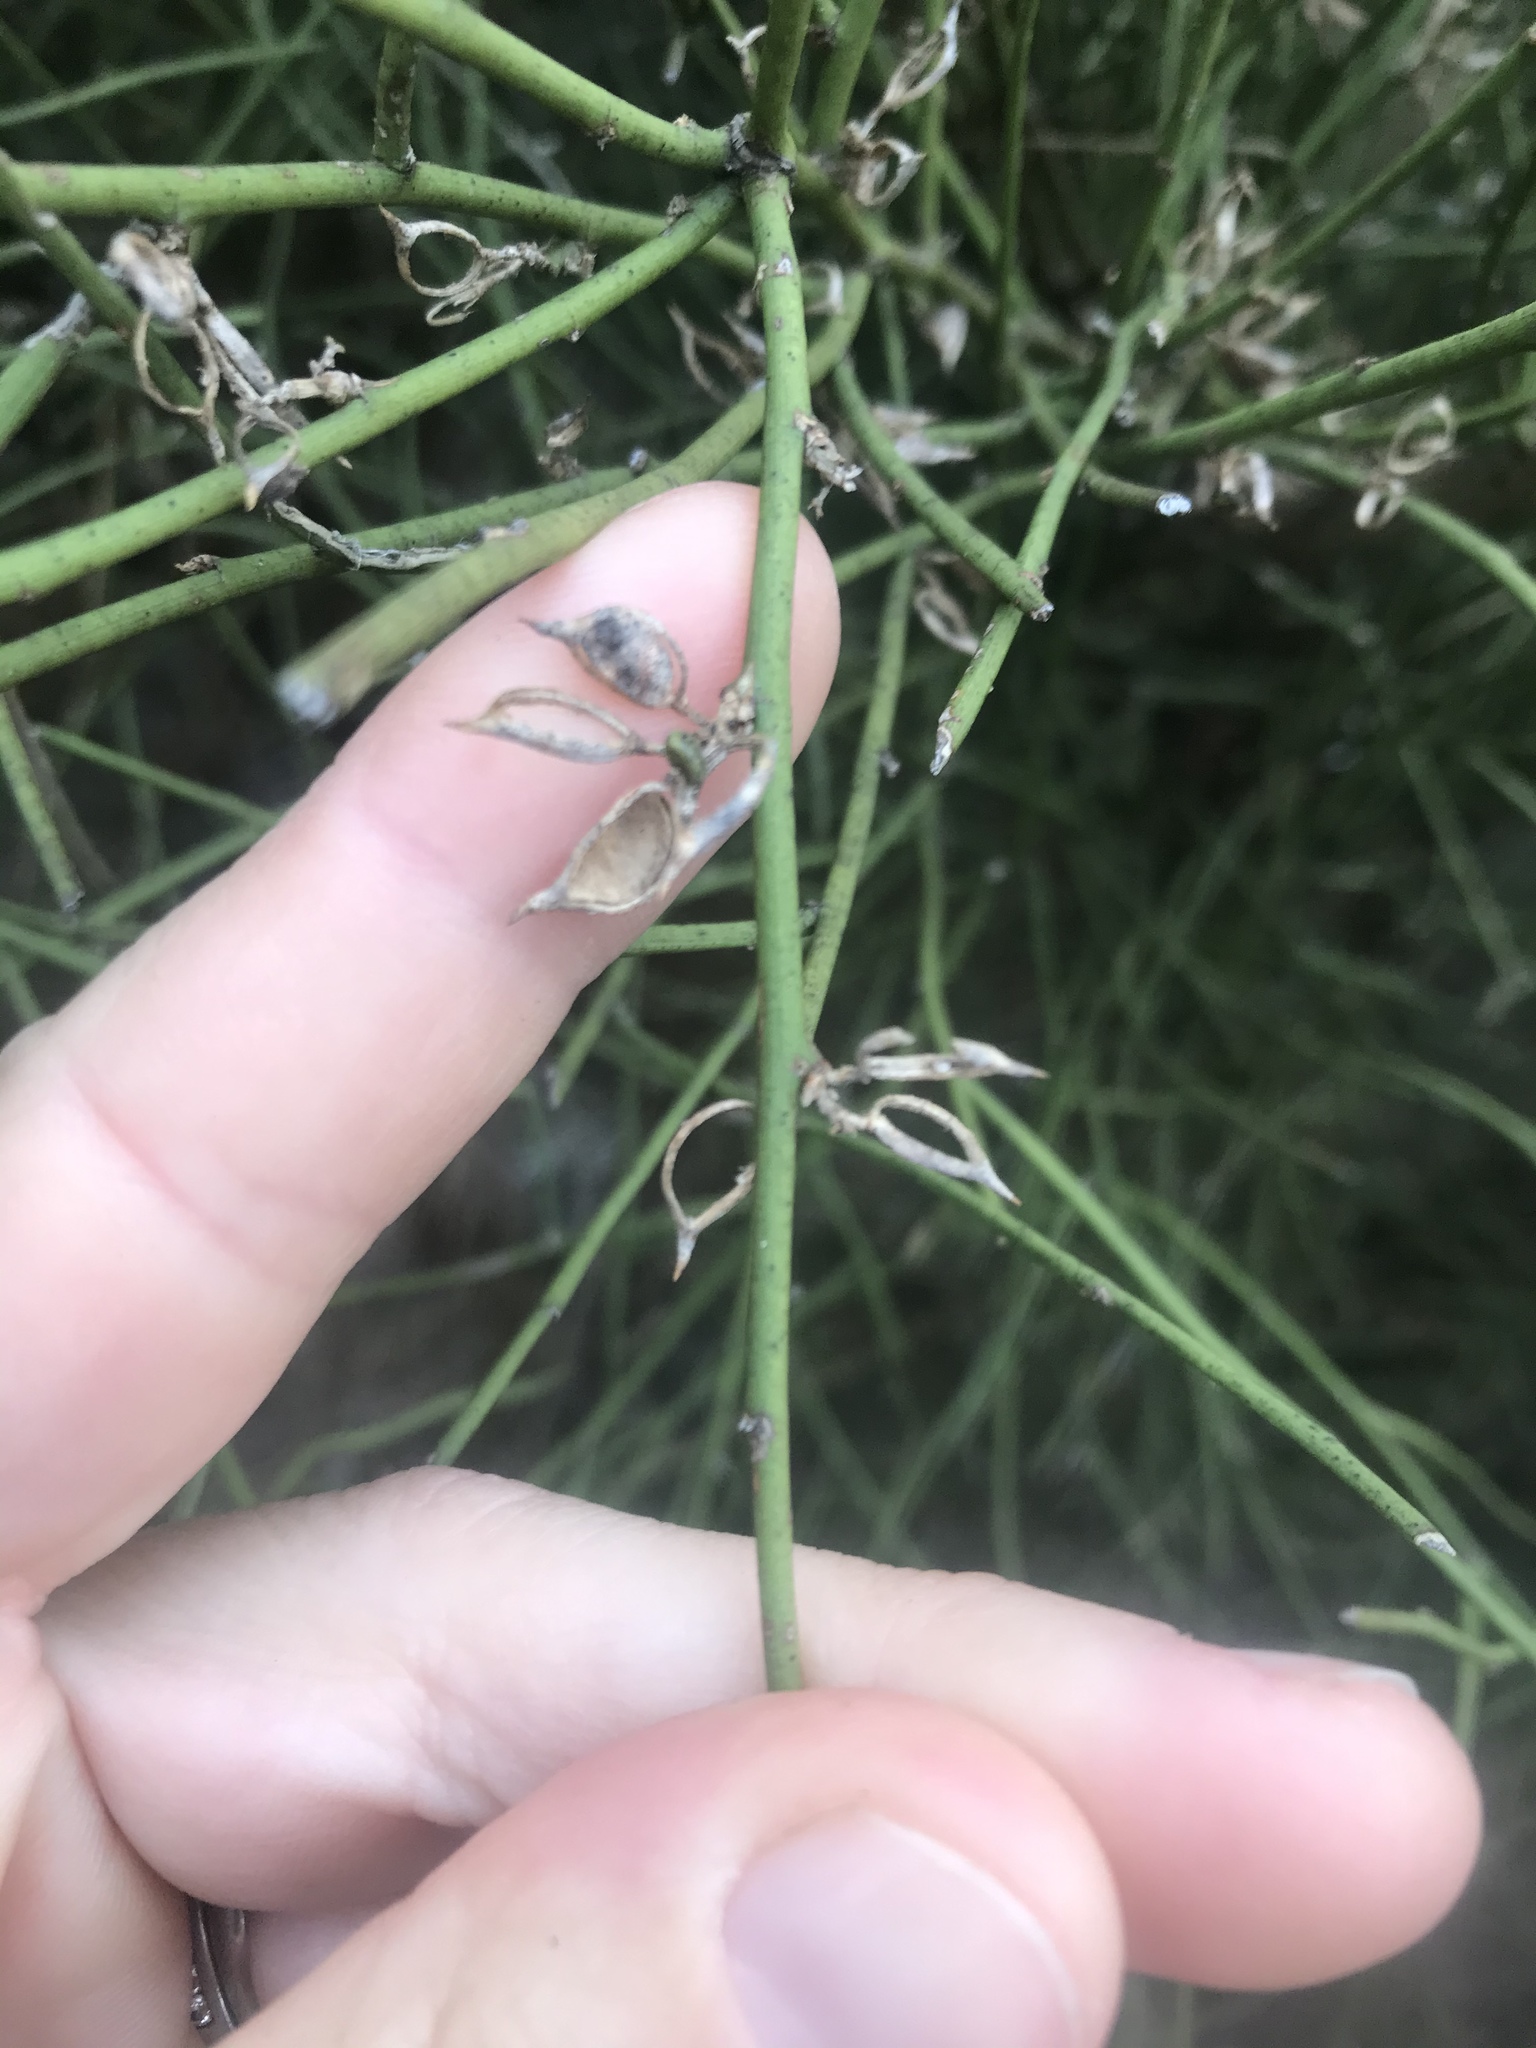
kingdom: Plantae
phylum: Tracheophyta
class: Magnoliopsida
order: Fabales
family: Fabaceae
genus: Carmichaelia
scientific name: Carmichaelia australis
